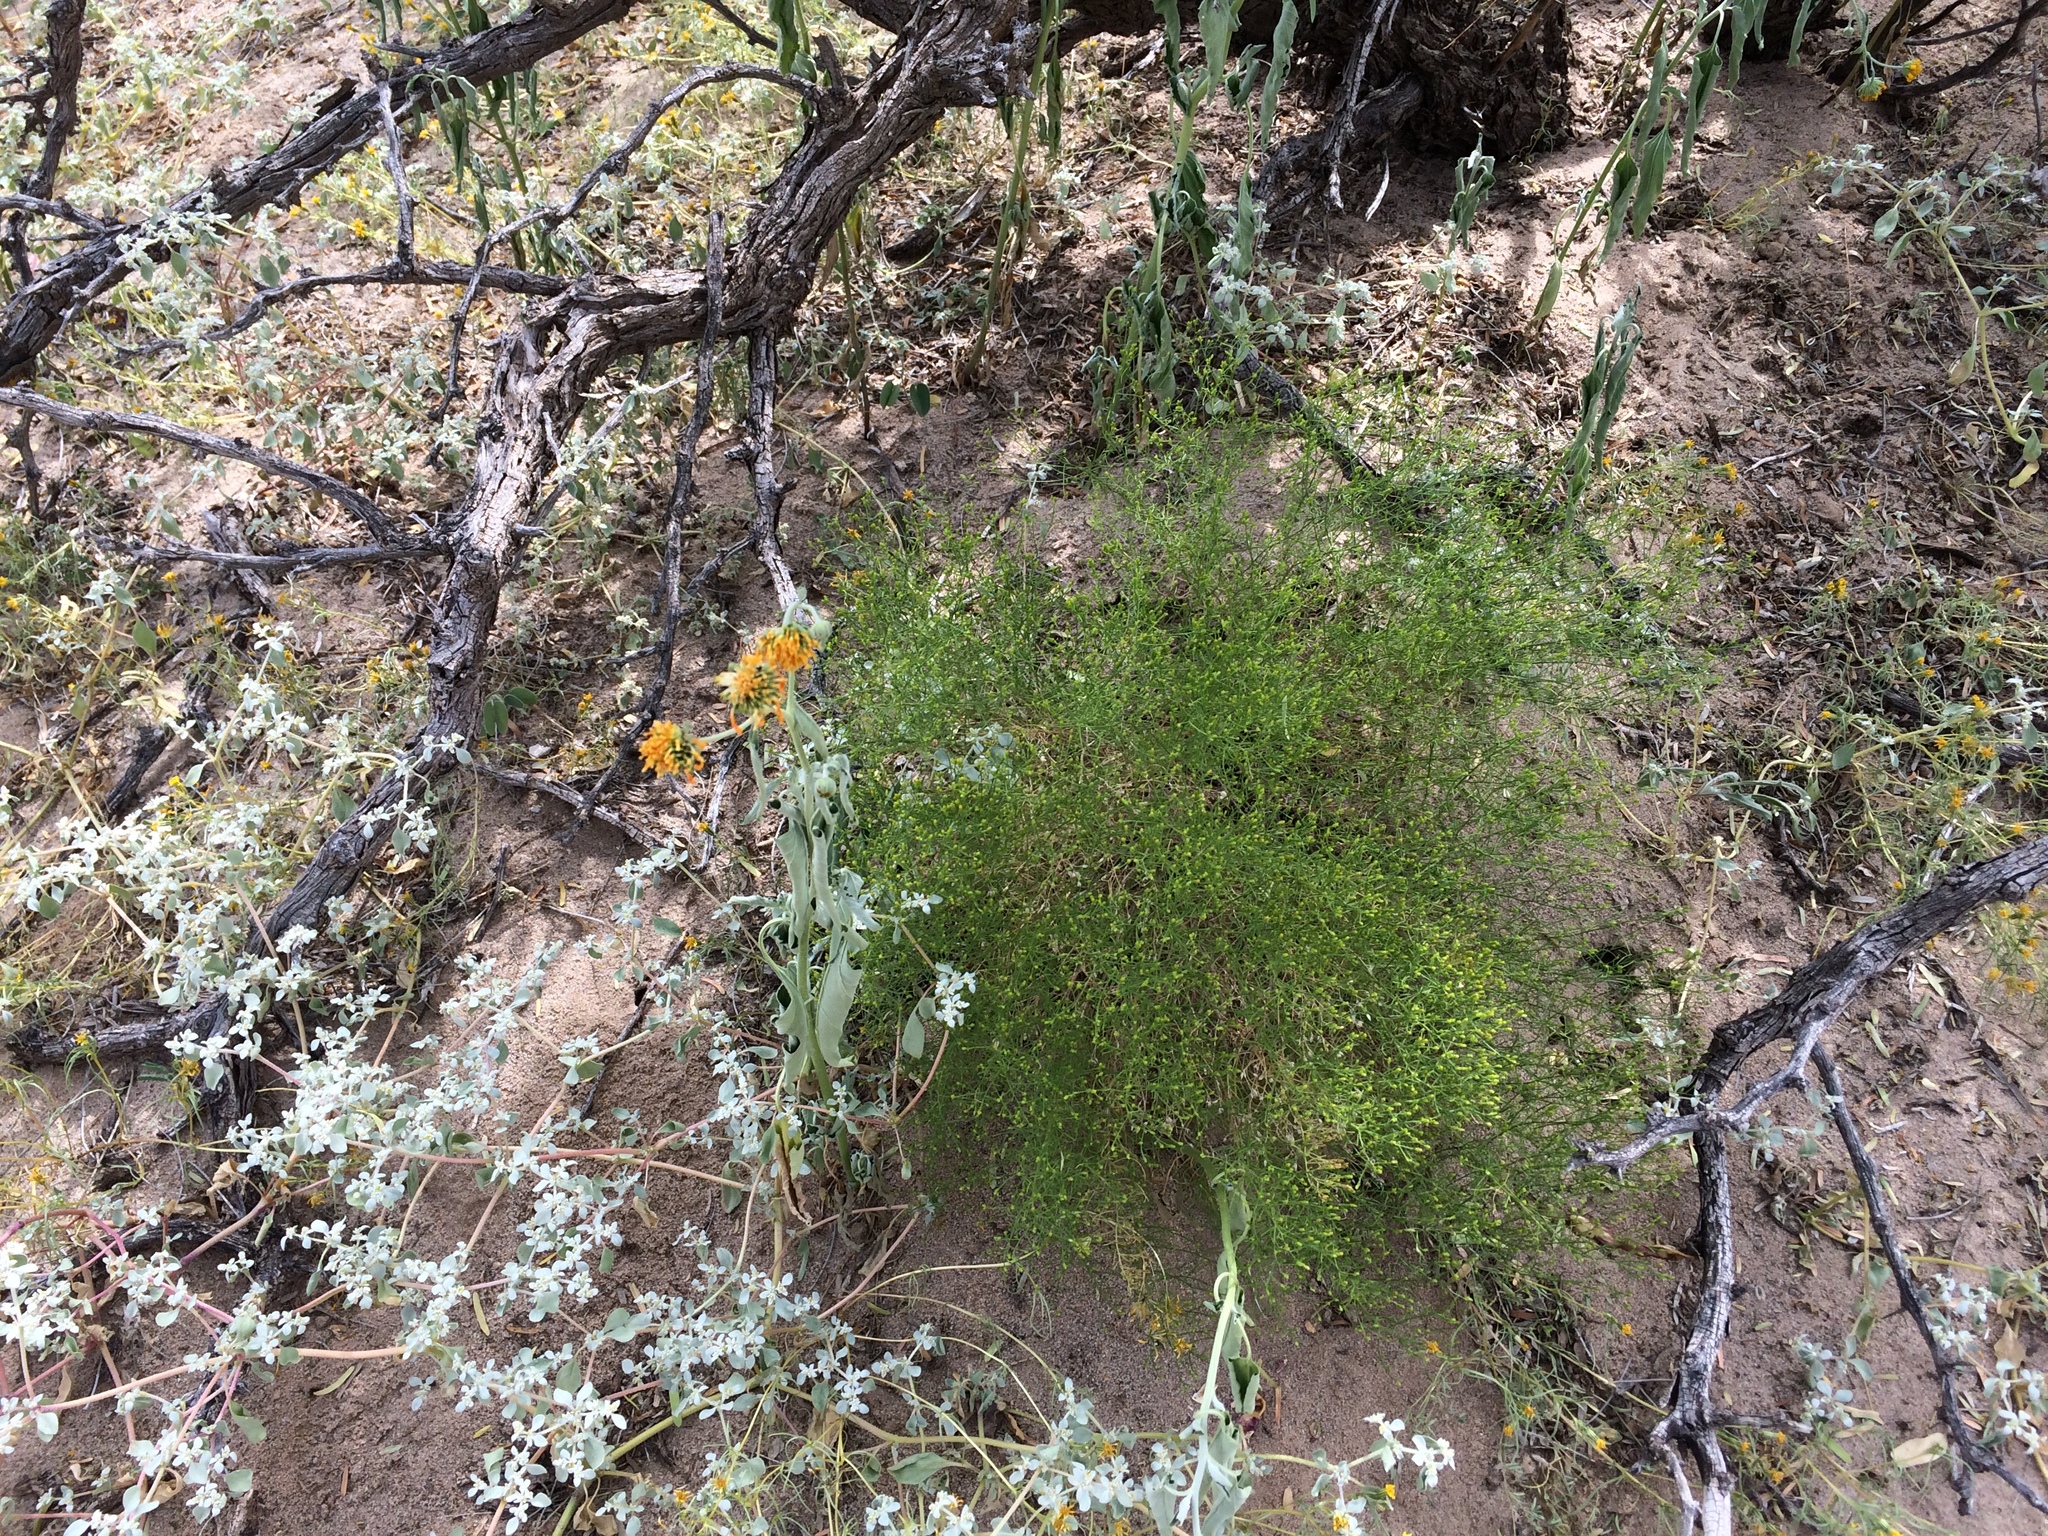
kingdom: Plantae
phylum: Tracheophyta
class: Magnoliopsida
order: Asterales
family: Asteraceae
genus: Gutierrezia
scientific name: Gutierrezia sarothrae
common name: Broom snakeweed
